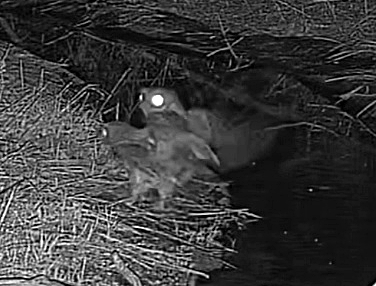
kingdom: Animalia
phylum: Chordata
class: Aves
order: Strigiformes
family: Strigidae
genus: Megascops
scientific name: Megascops asio
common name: Eastern screech-owl
